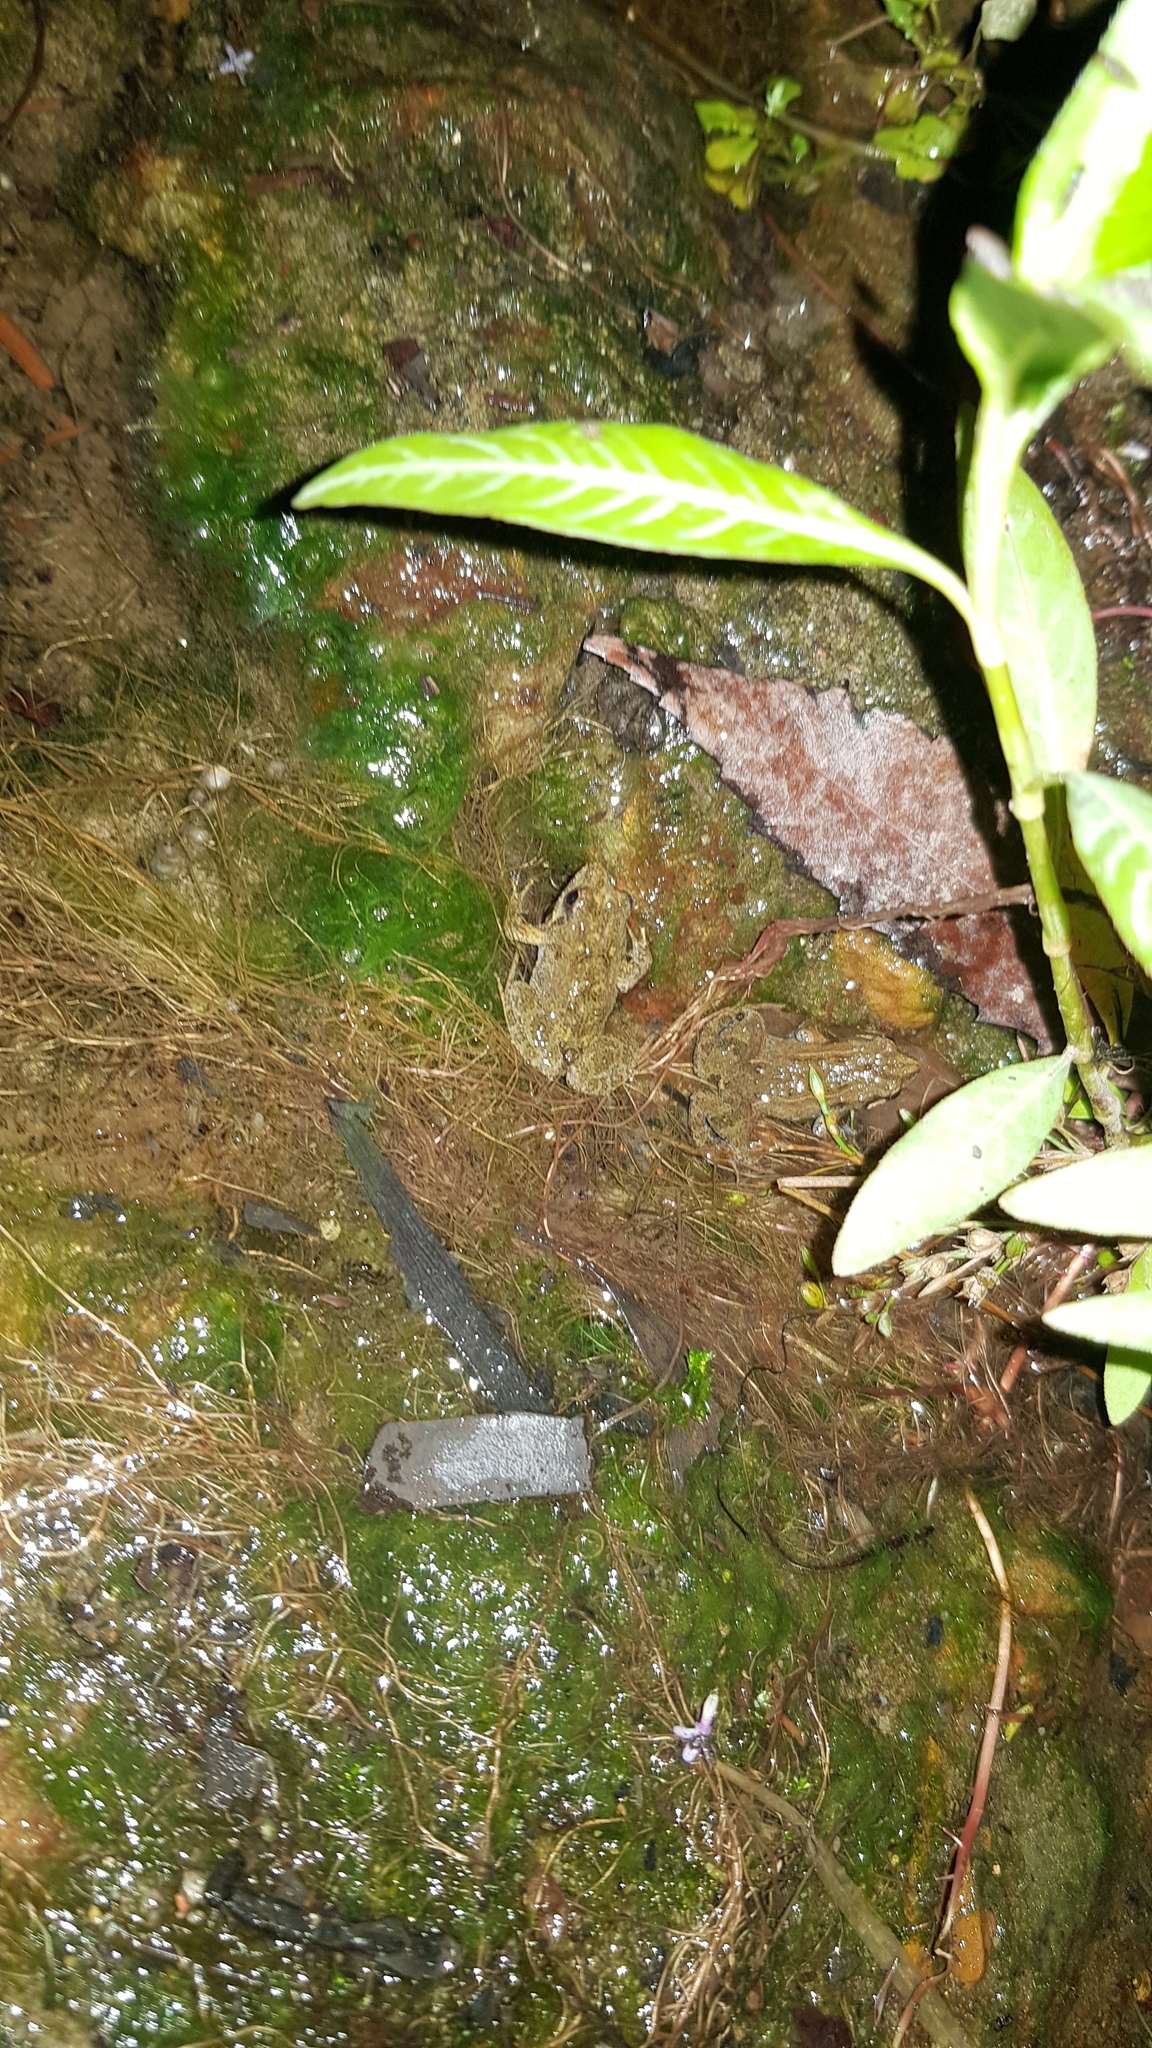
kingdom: Animalia
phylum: Chordata
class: Amphibia
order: Anura
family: Myobatrachidae
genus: Crinia
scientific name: Crinia signifera
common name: Brown froglet
